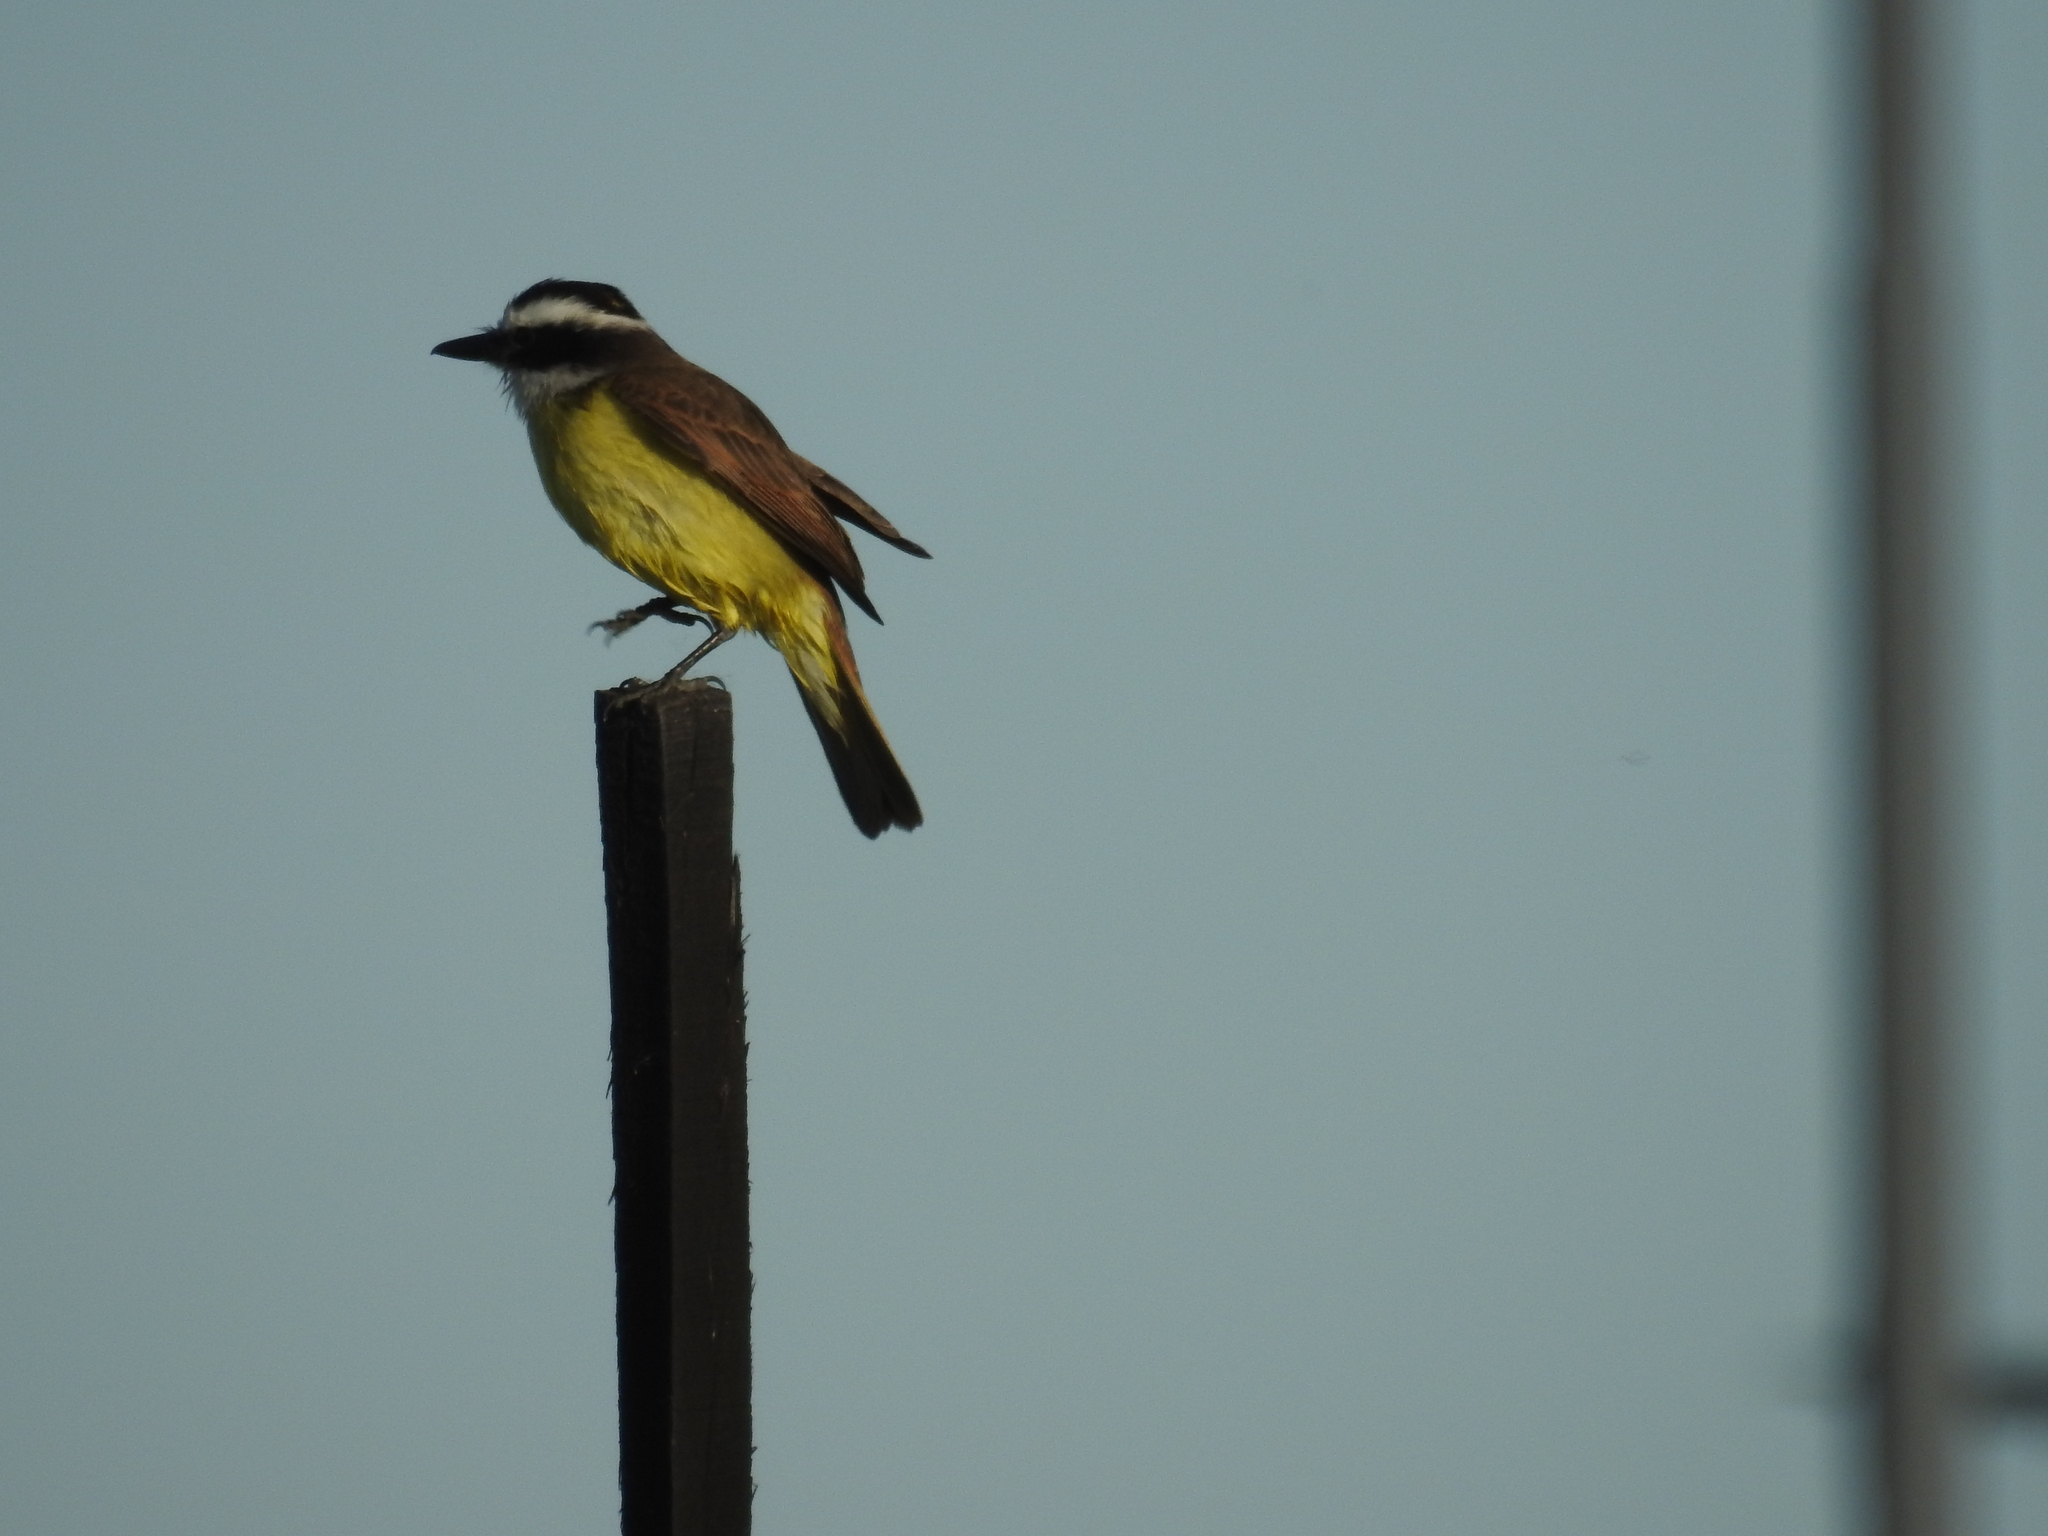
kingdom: Animalia
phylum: Chordata
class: Aves
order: Passeriformes
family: Tyrannidae
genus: Pitangus
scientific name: Pitangus sulphuratus
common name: Great kiskadee
